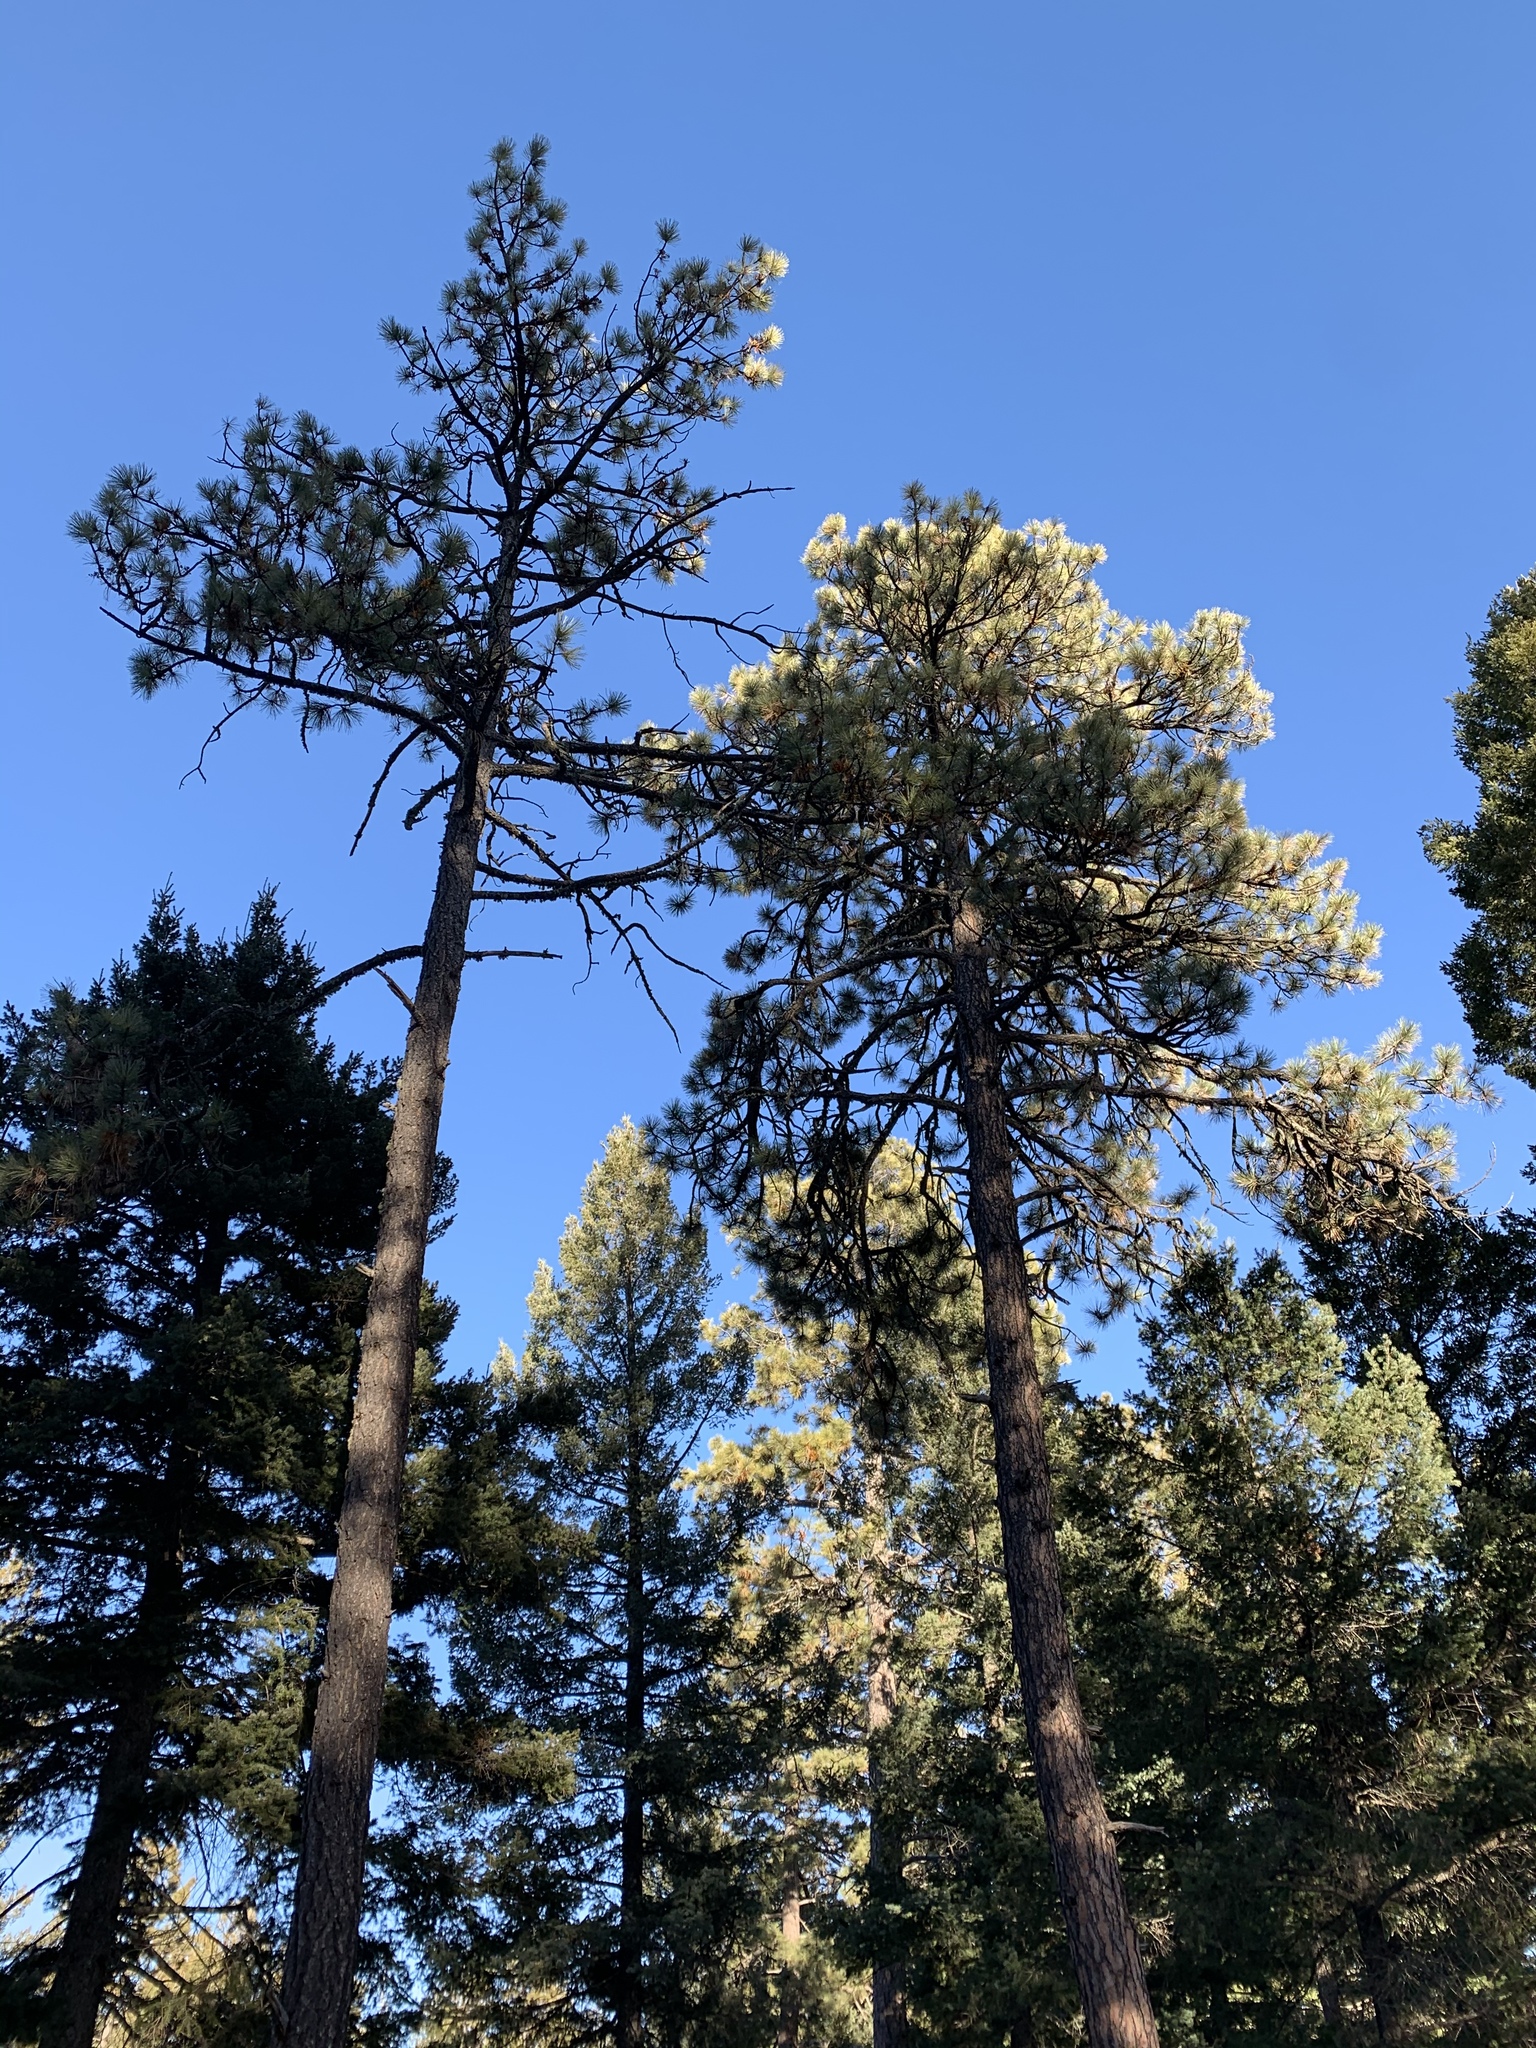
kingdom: Plantae
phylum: Tracheophyta
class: Pinopsida
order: Pinales
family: Pinaceae
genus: Pinus
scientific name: Pinus ponderosa
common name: Western yellow-pine
